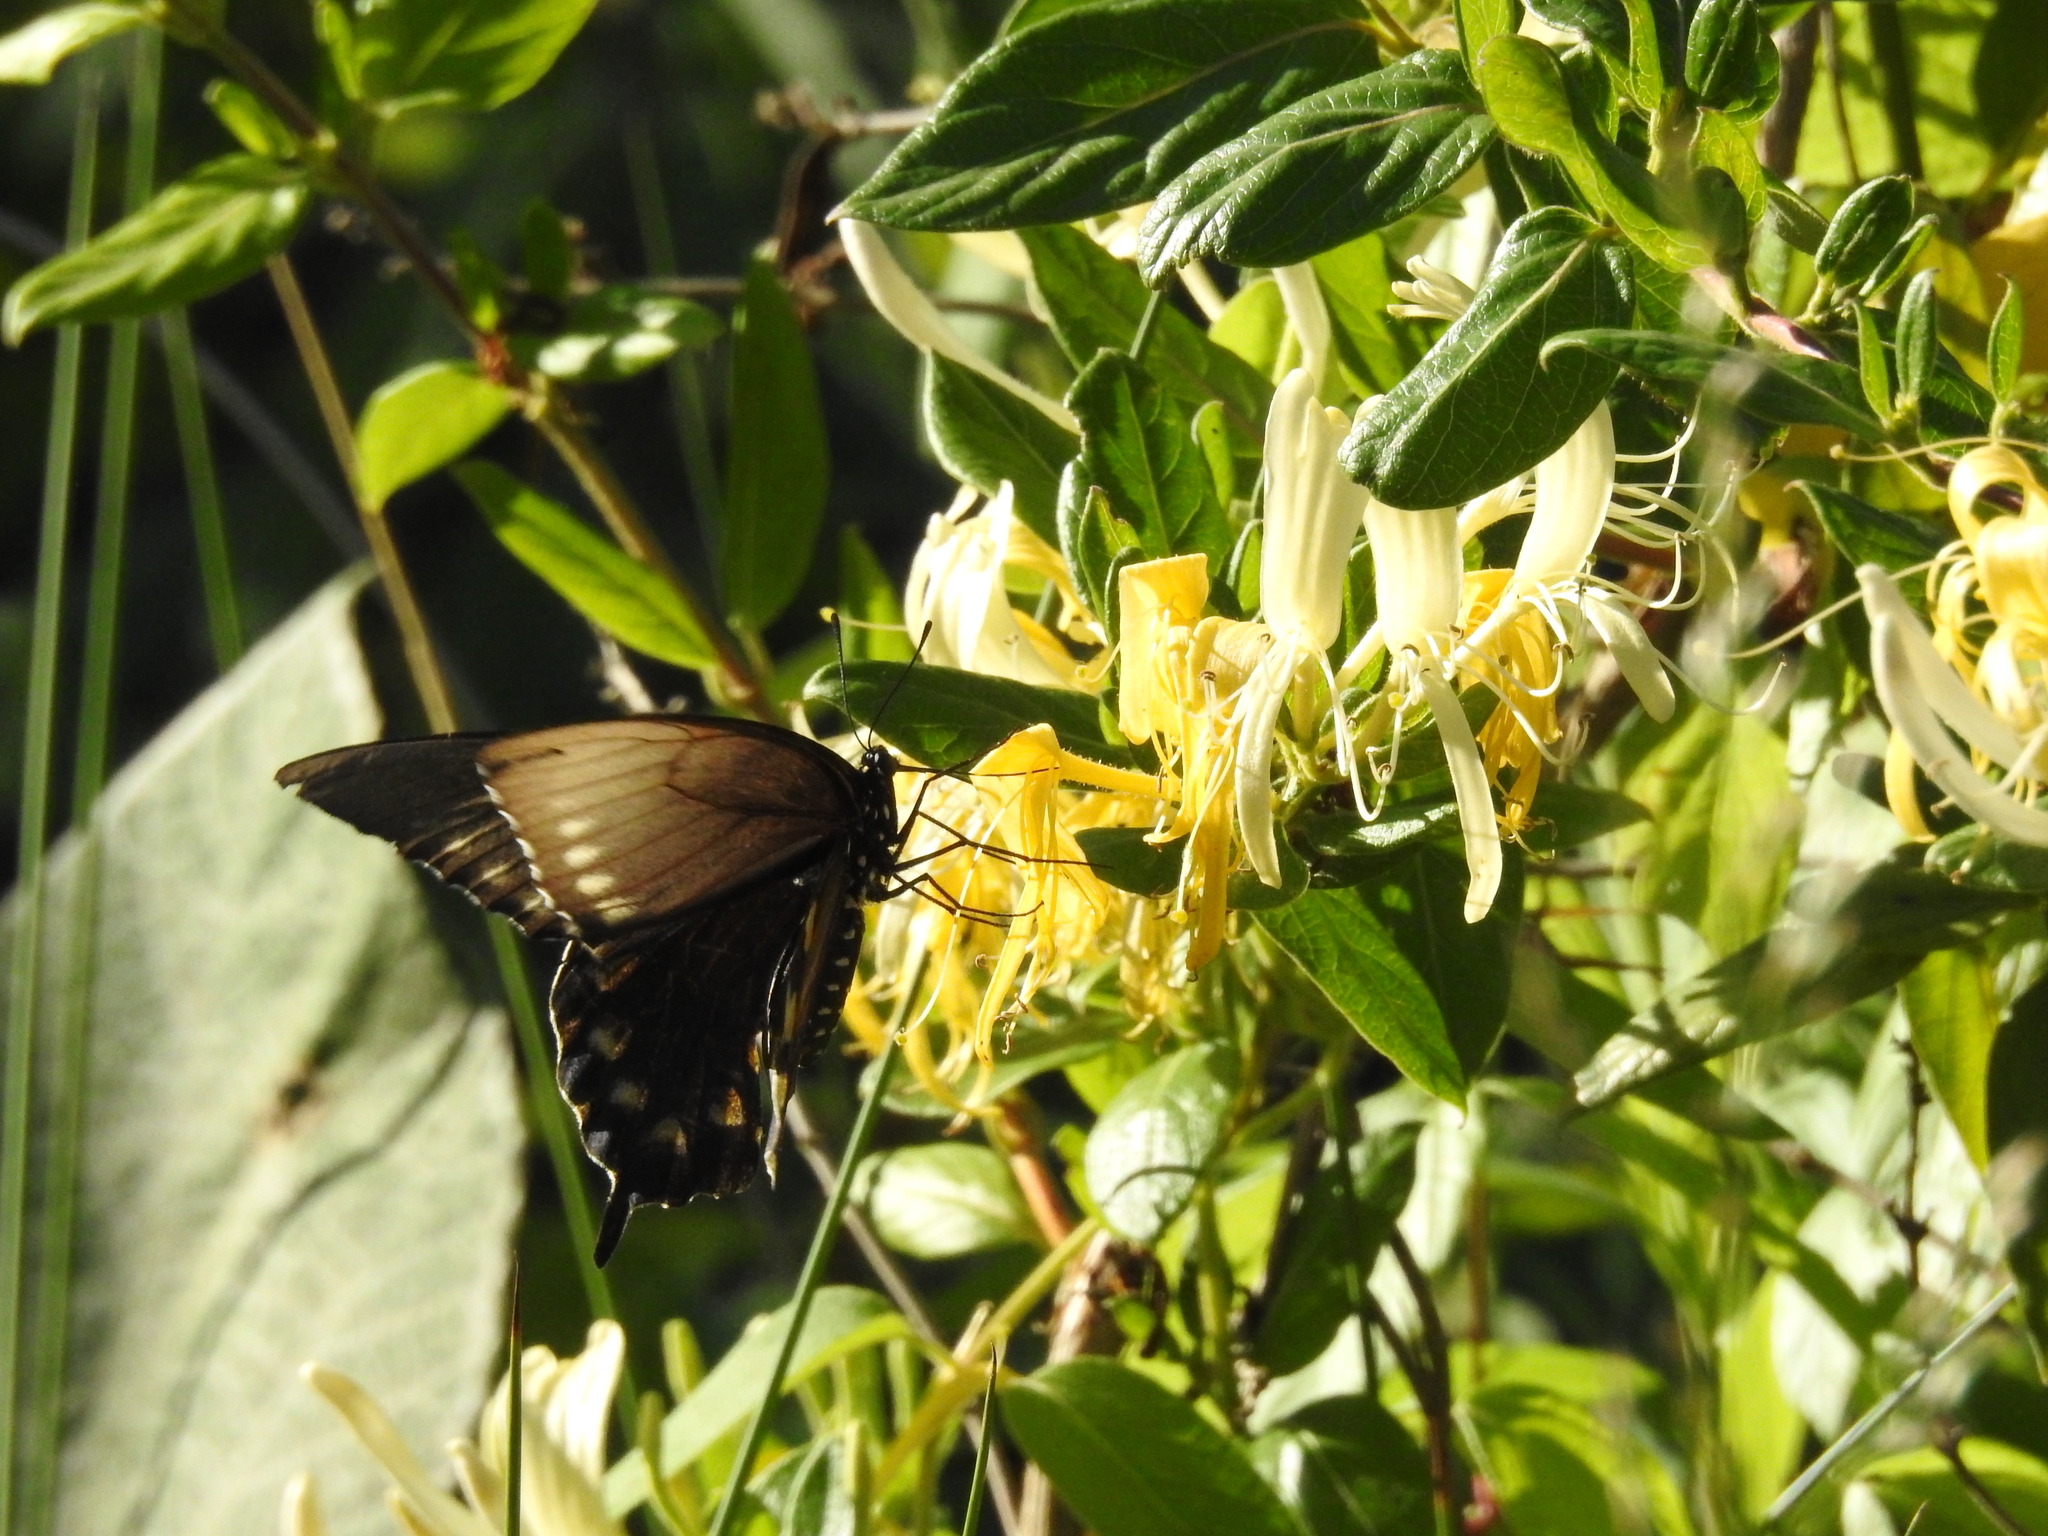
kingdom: Animalia
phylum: Arthropoda
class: Insecta
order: Lepidoptera
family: Papilionidae
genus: Battus
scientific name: Battus philenor
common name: Pipevine swallowtail
